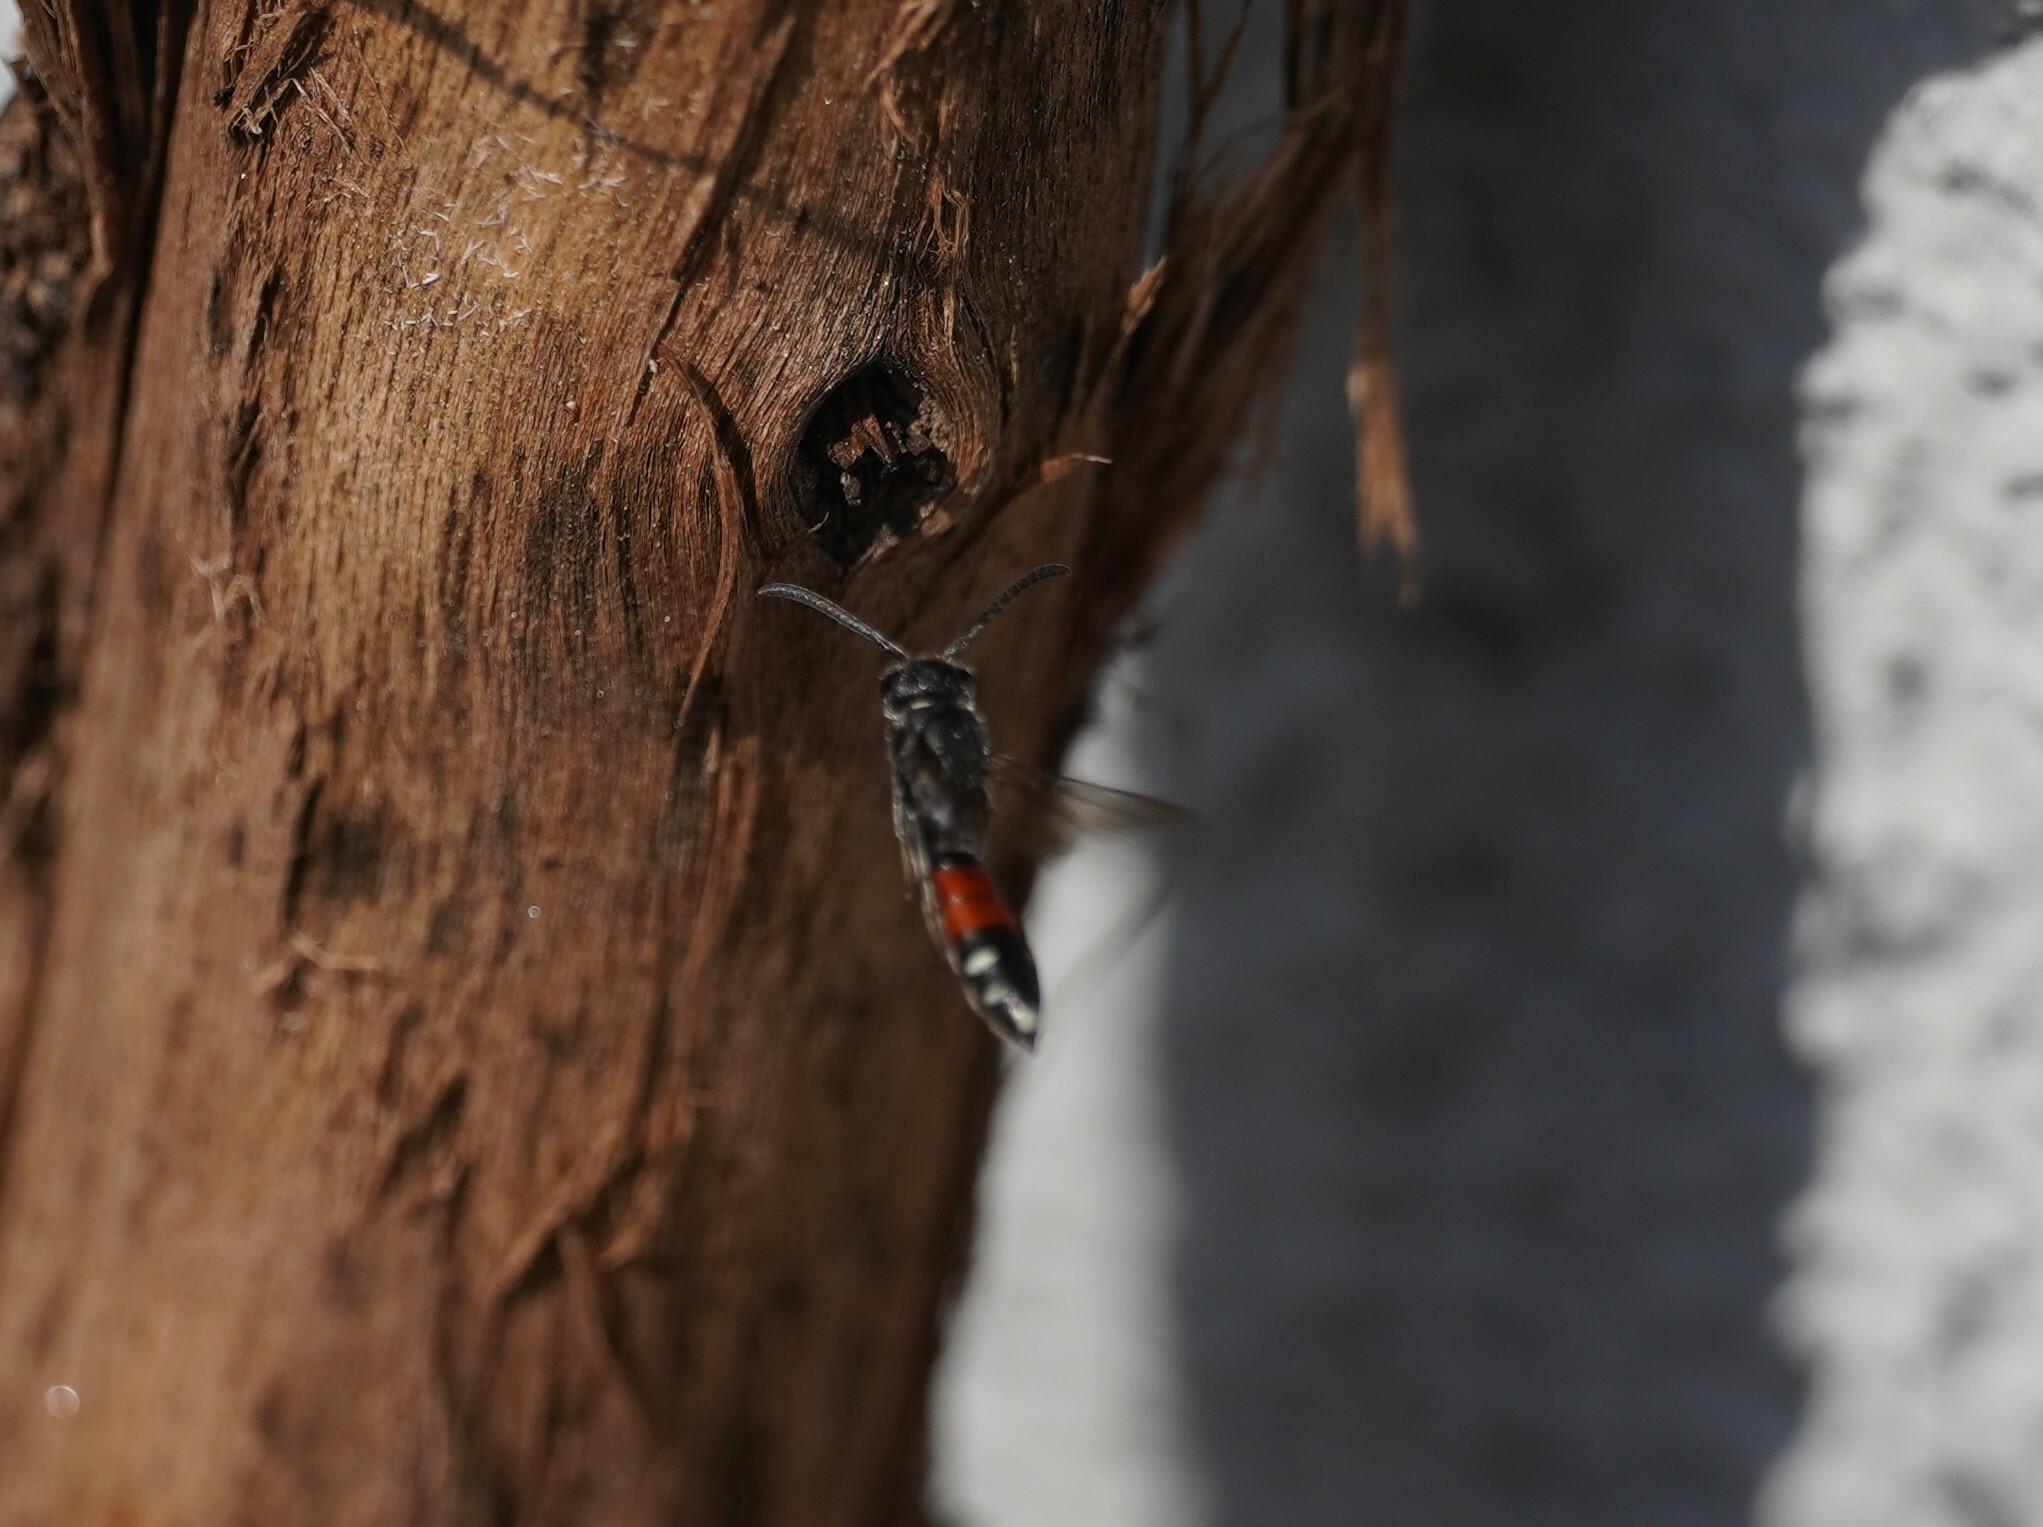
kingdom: Animalia
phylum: Arthropoda
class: Insecta
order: Hymenoptera
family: Sapygidae
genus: Sapyga
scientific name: Sapyga quinquepunctata
